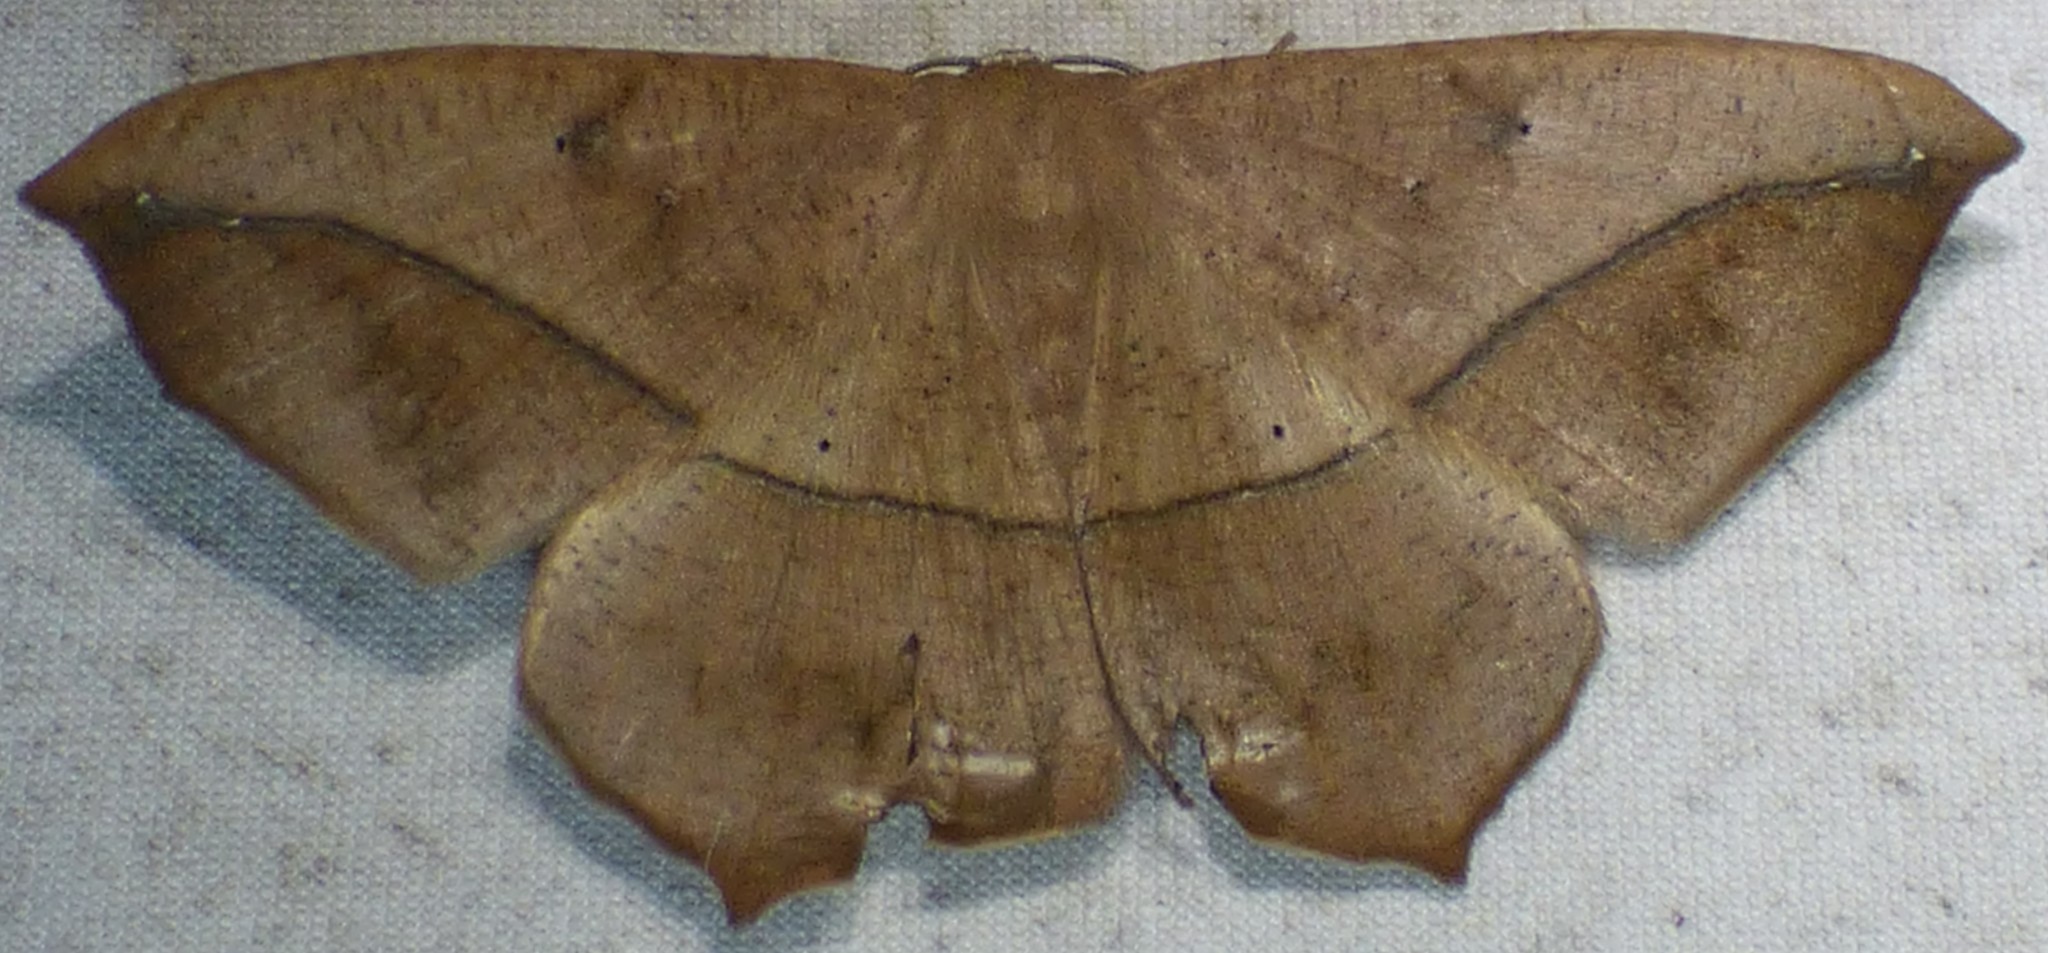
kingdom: Animalia
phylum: Arthropoda
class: Insecta
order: Lepidoptera
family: Geometridae
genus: Prochoerodes
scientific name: Prochoerodes lineola
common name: Large maple spanworm
